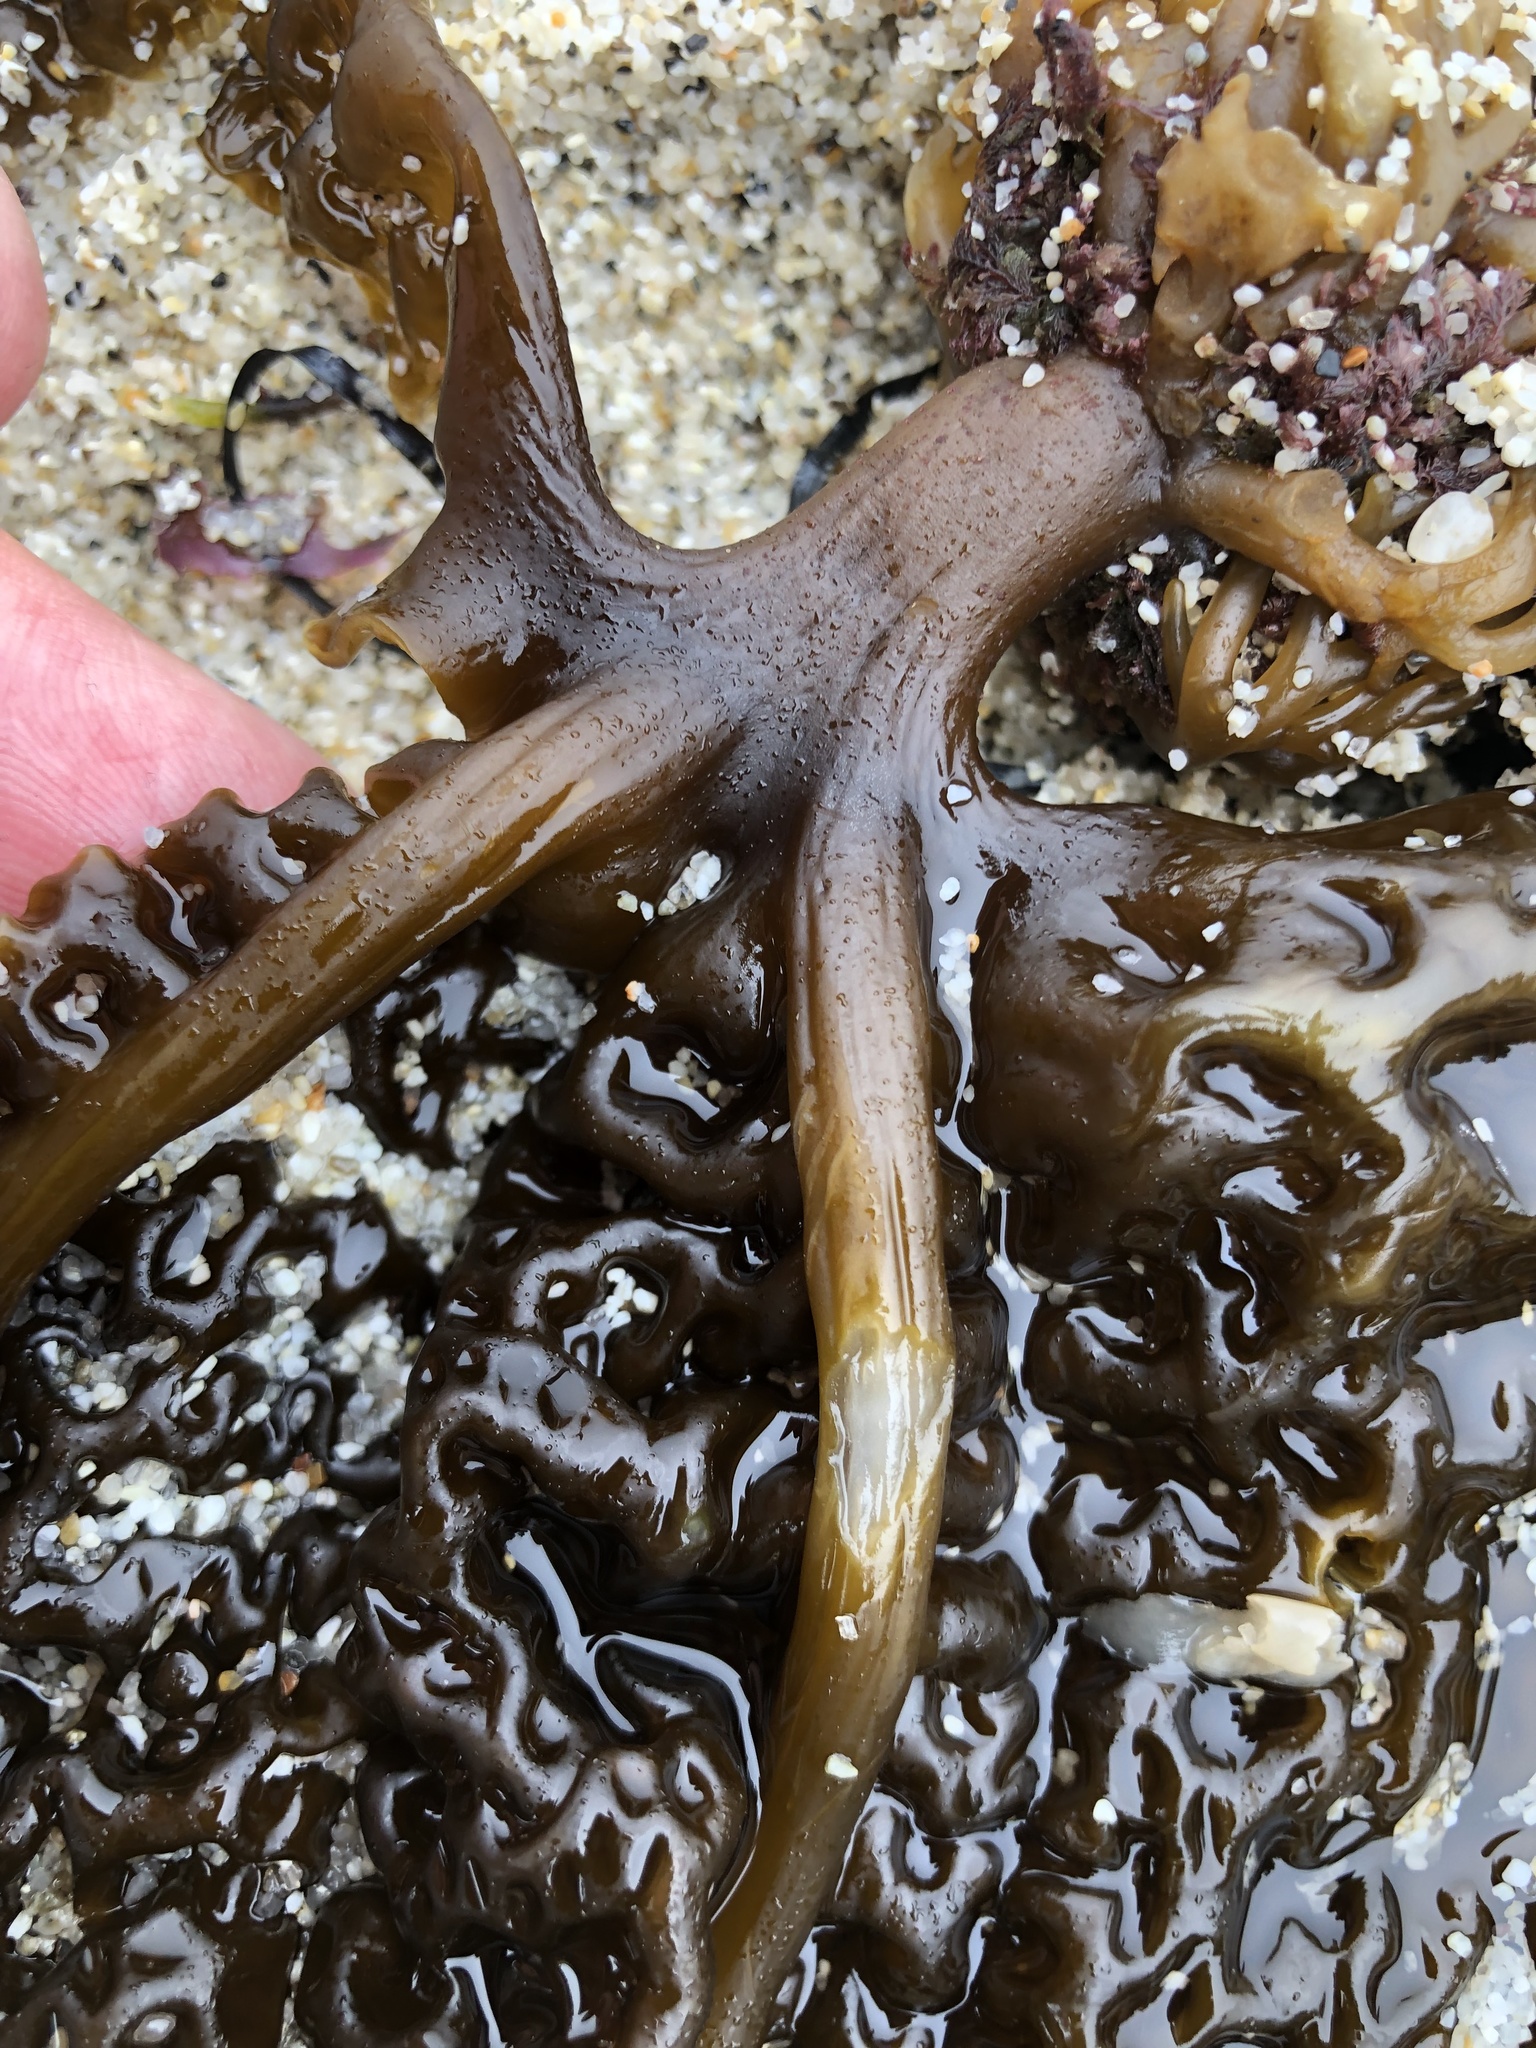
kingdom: Chromista
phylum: Ochrophyta
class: Phaeophyceae
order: Laminariales
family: Costariaceae
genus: Costaria
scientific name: Costaria costata
